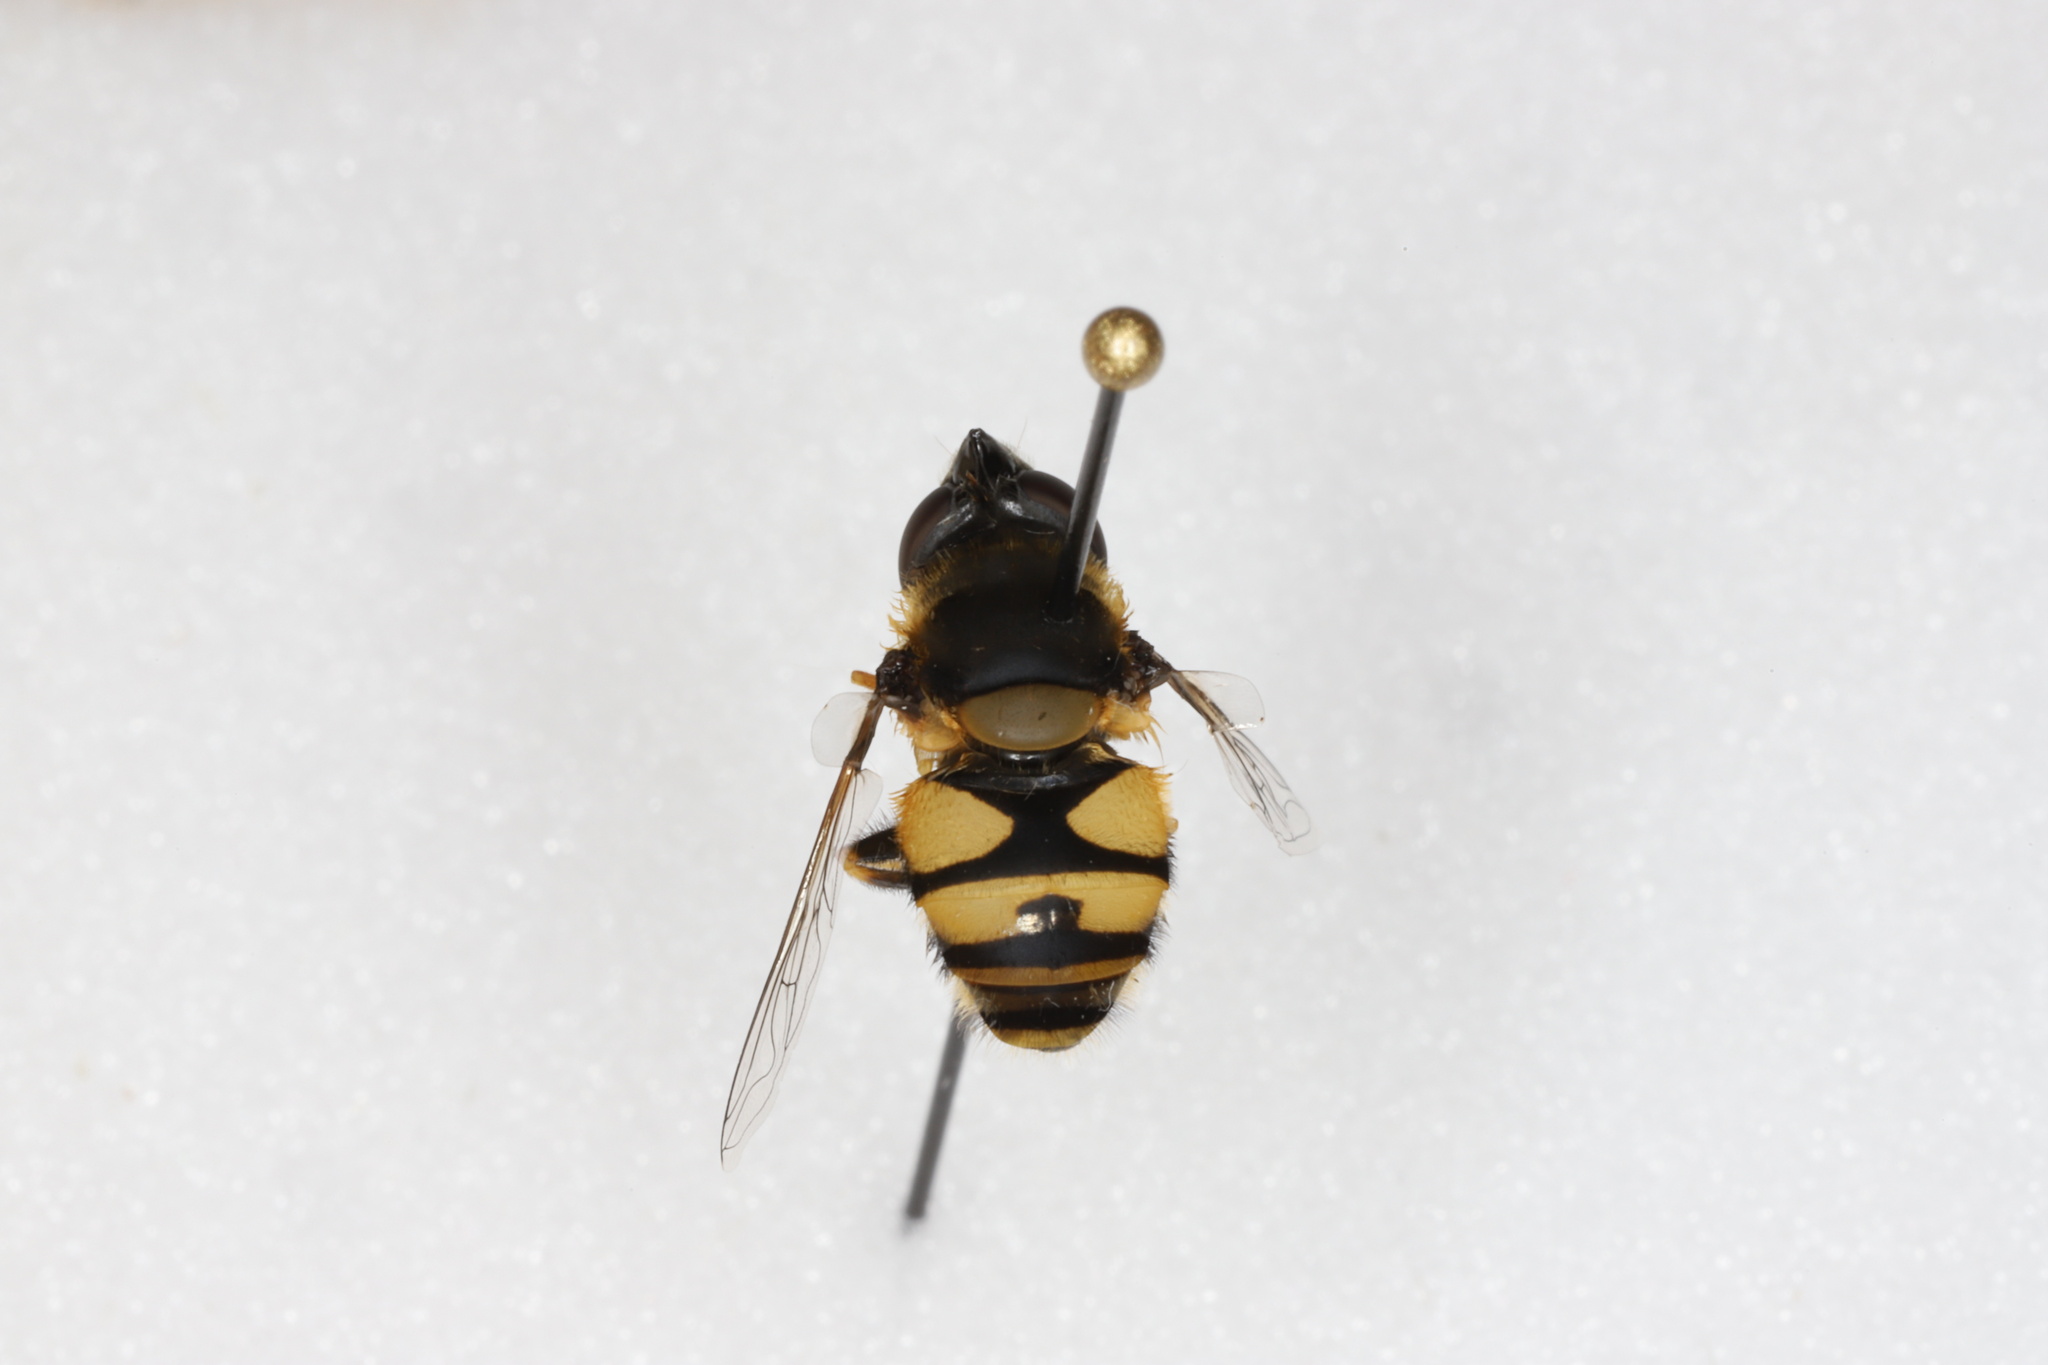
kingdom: Animalia
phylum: Arthropoda
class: Insecta
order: Diptera
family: Syrphidae
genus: Eristalis
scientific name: Eristalis transversa
